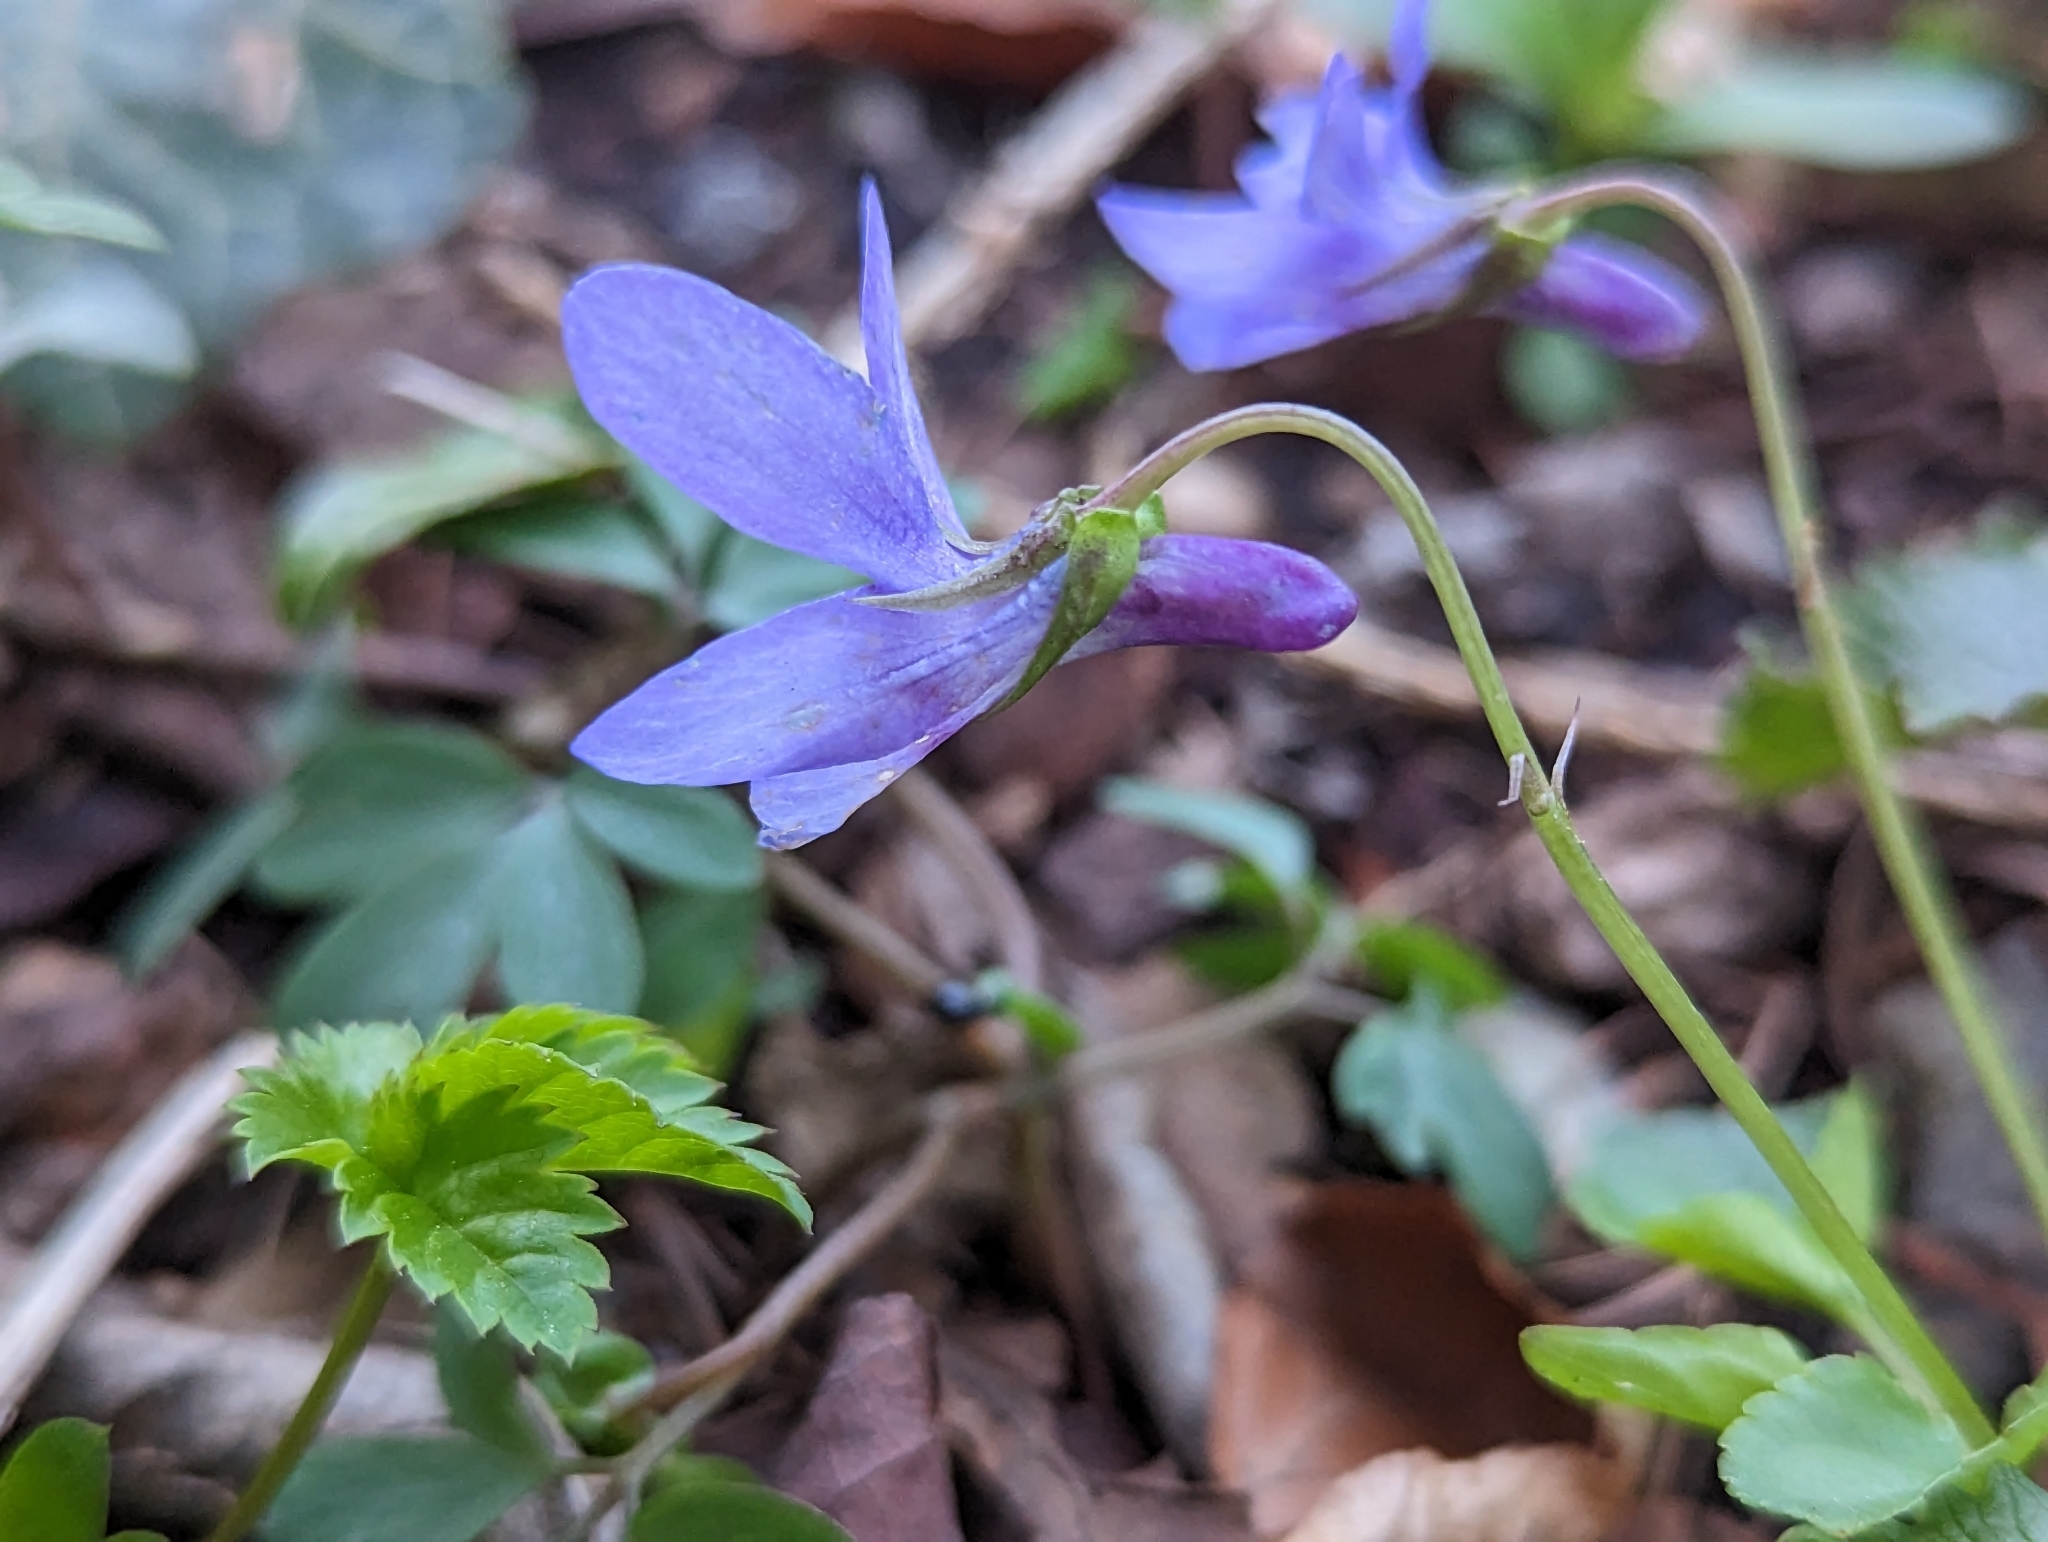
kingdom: Plantae
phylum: Tracheophyta
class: Magnoliopsida
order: Malpighiales
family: Violaceae
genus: Viola
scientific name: Viola reichenbachiana
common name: Early dog-violet
